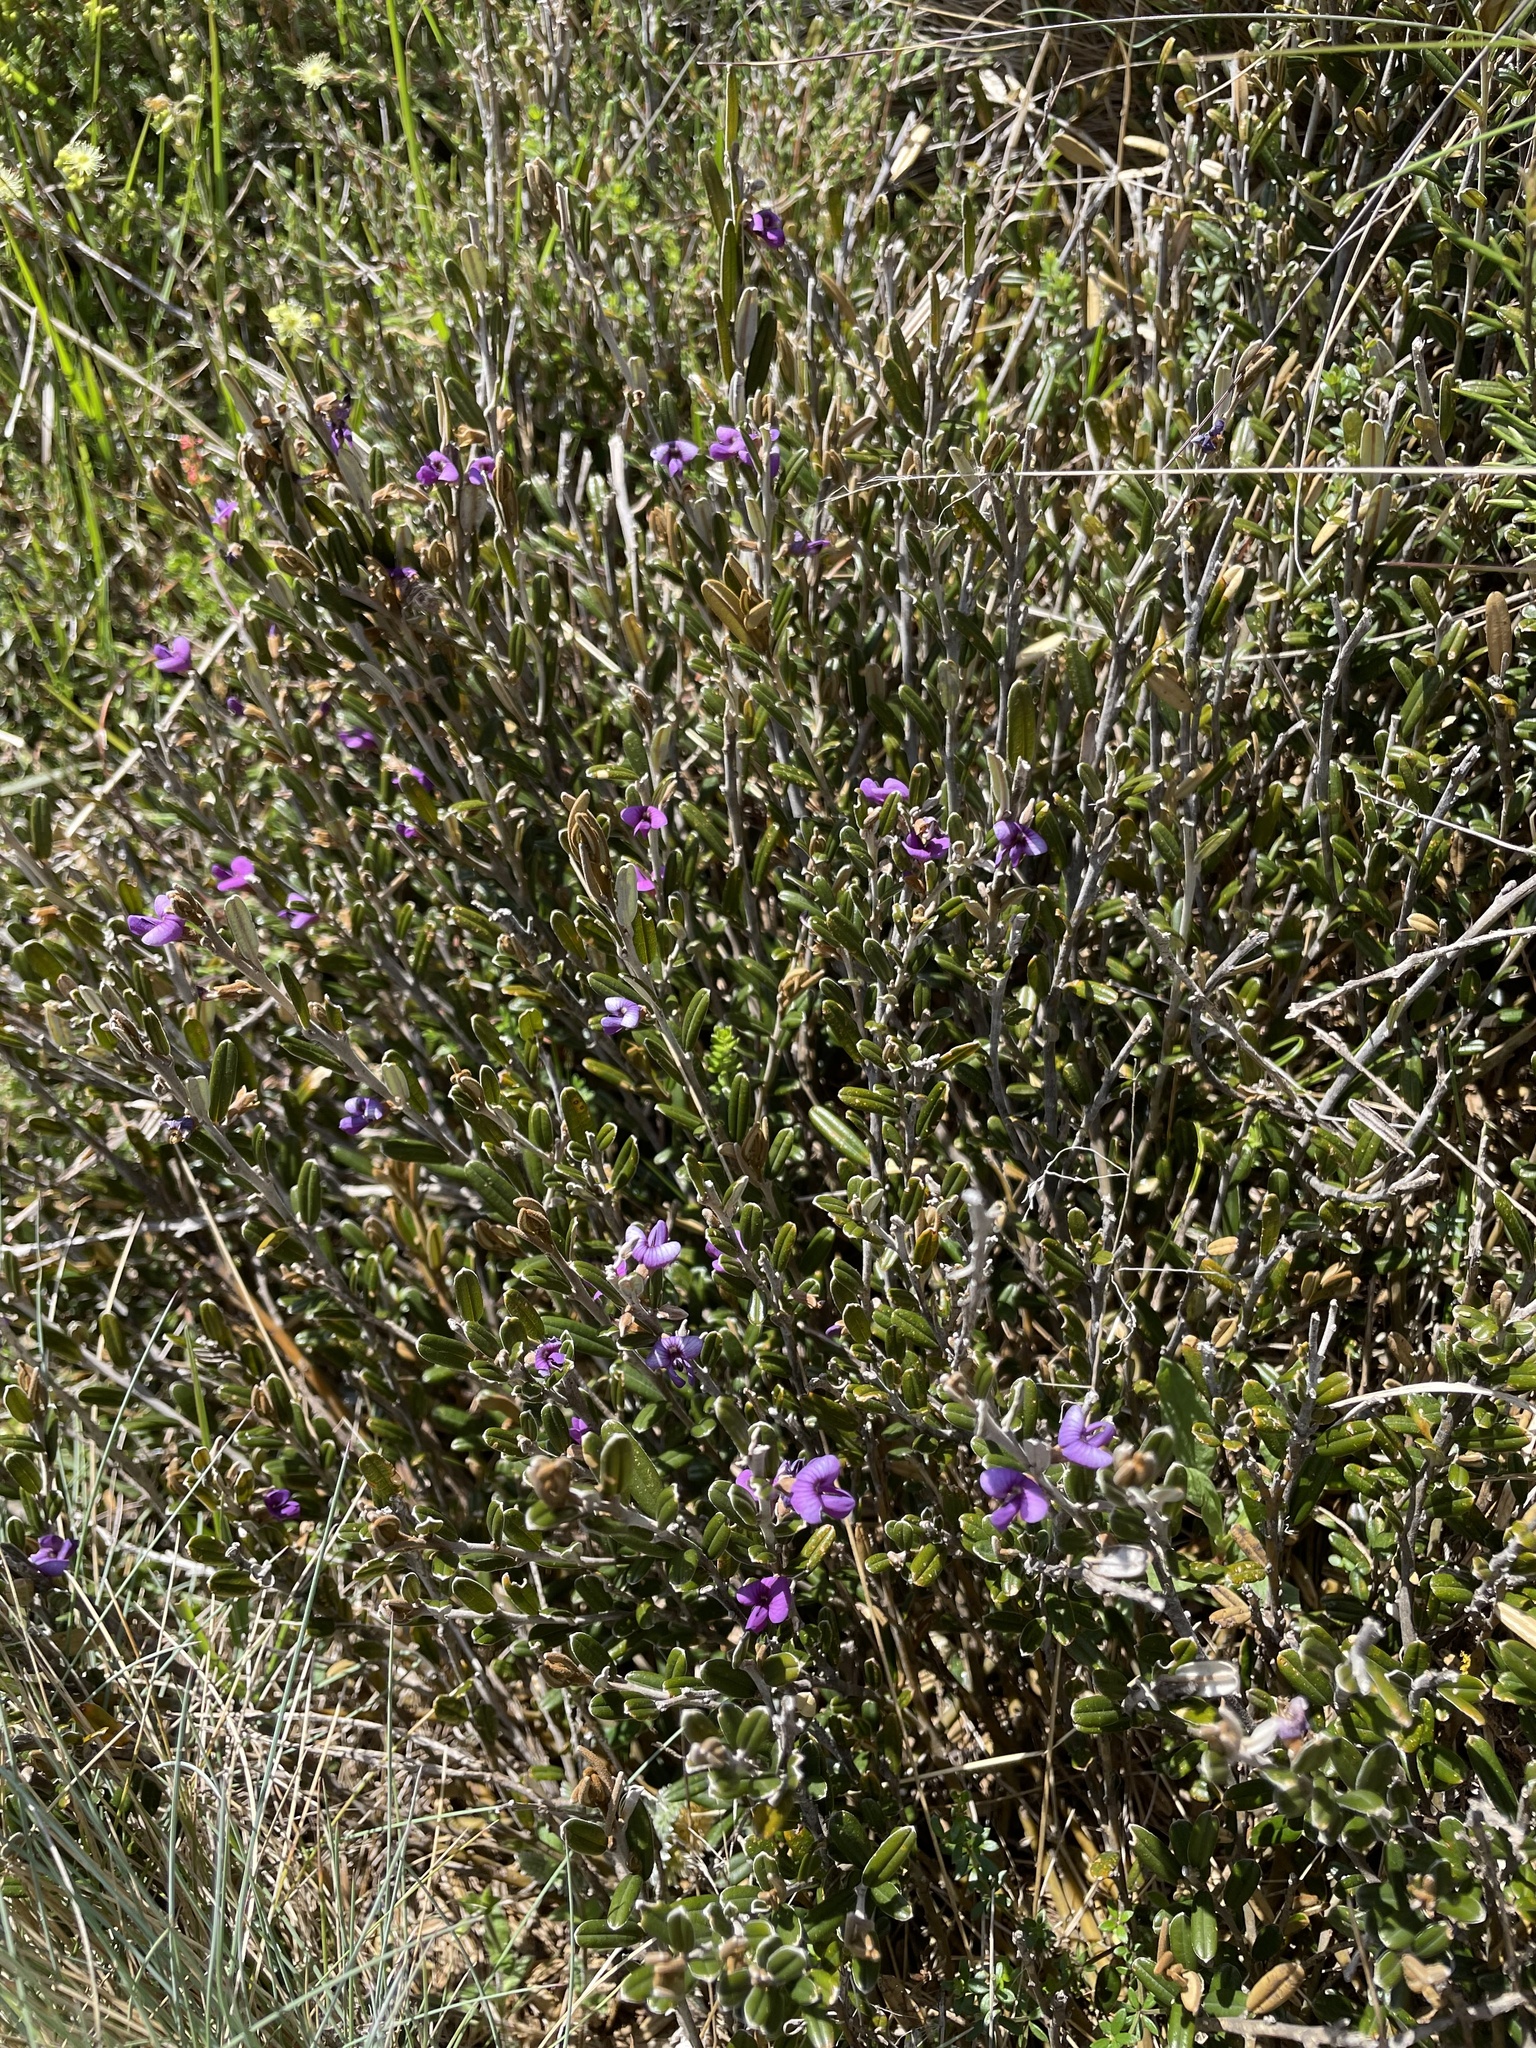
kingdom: Plantae
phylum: Tracheophyta
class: Magnoliopsida
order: Fabales
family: Fabaceae
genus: Hovea
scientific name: Hovea montana
